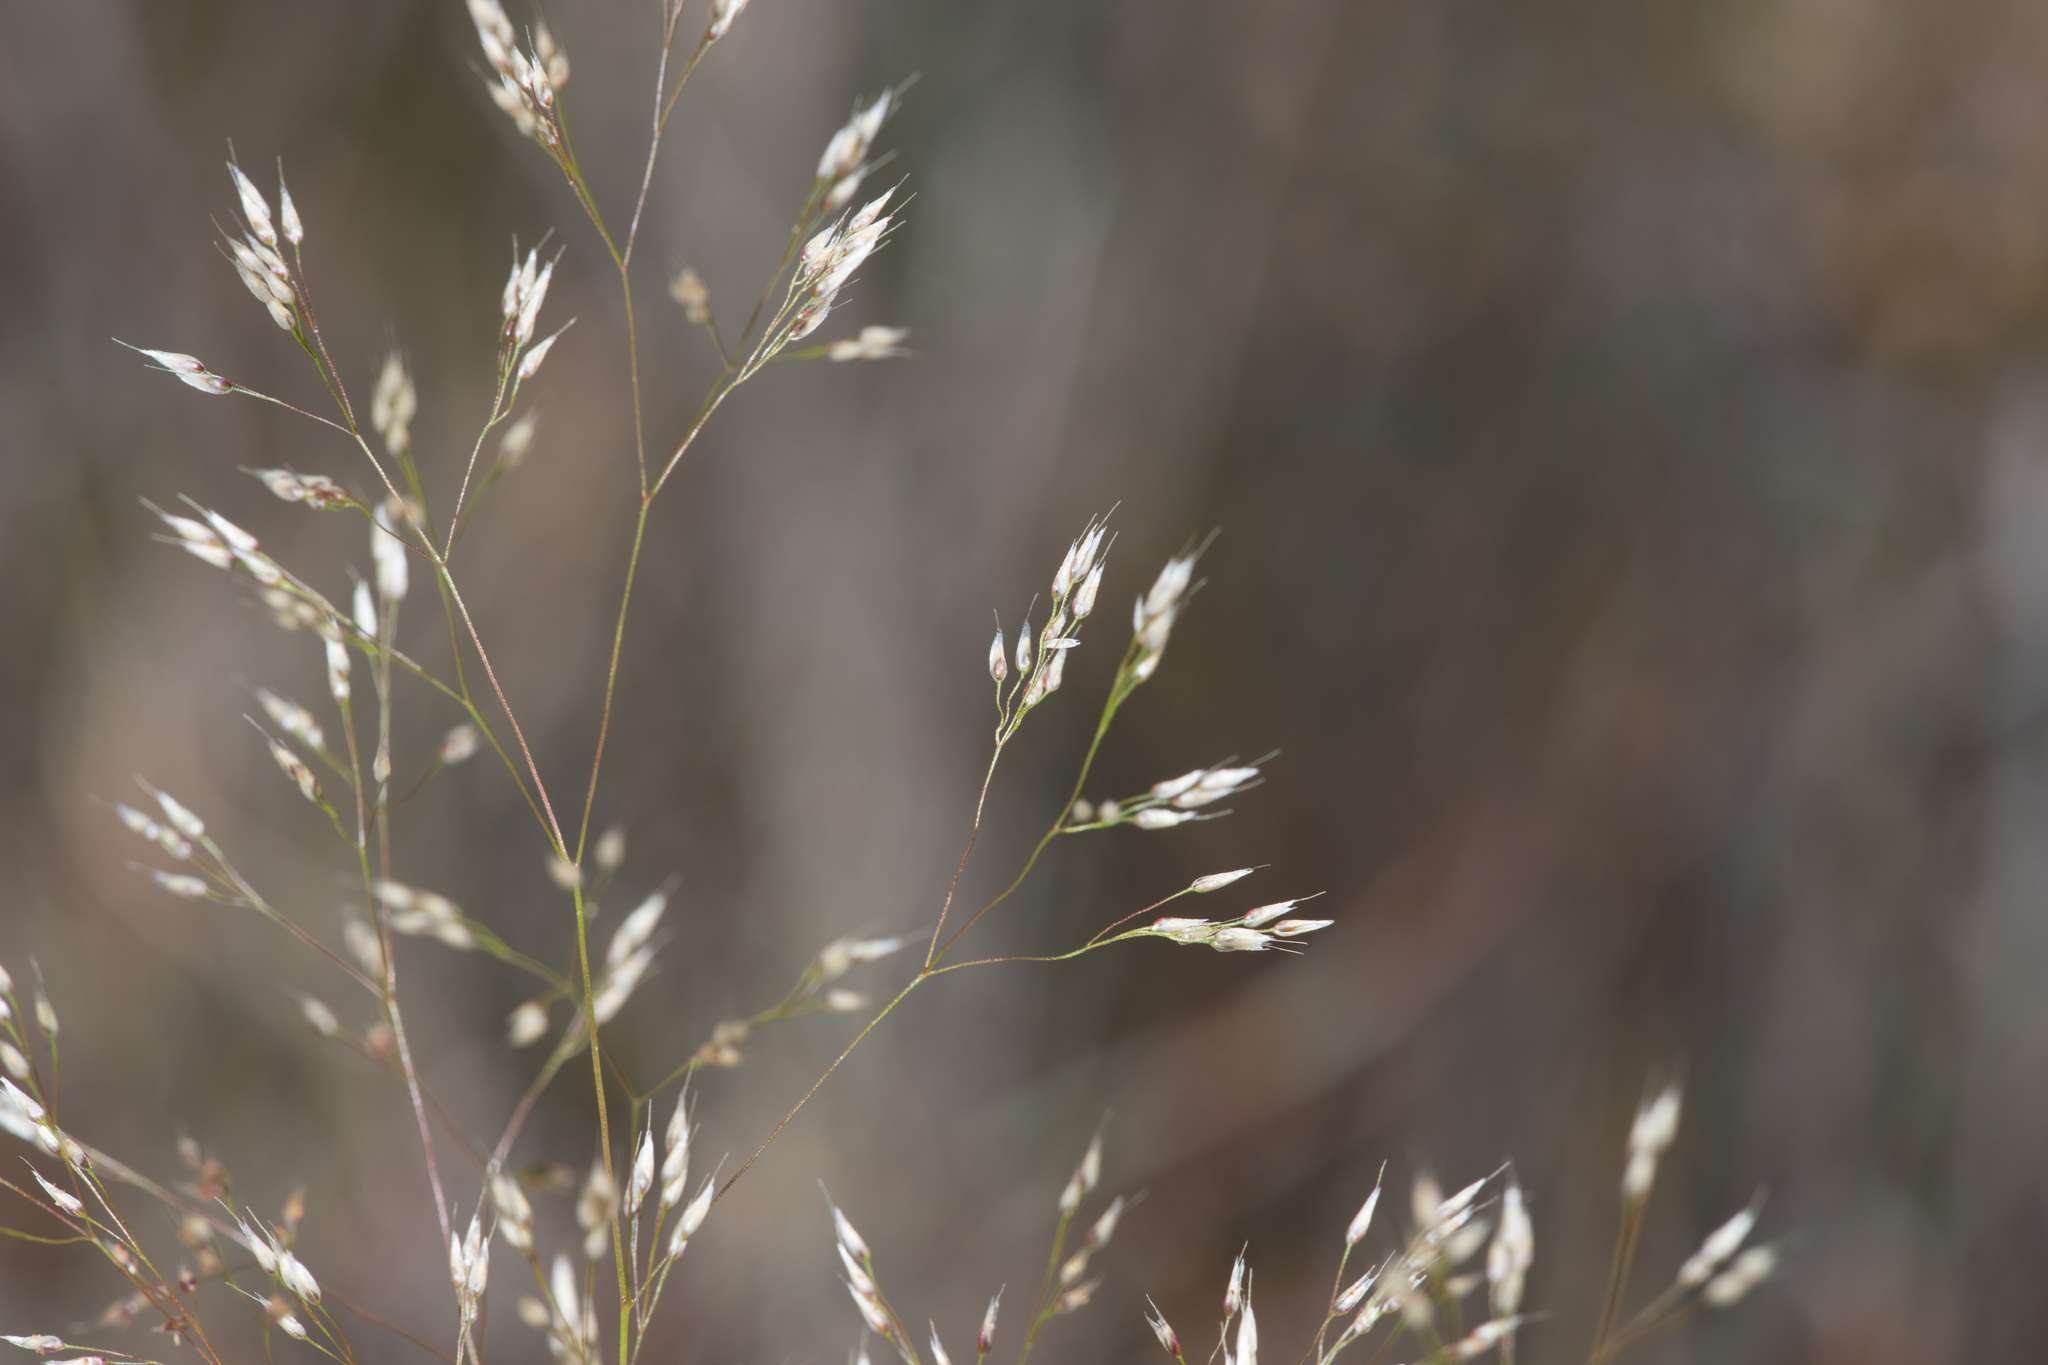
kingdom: Plantae
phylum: Tracheophyta
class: Liliopsida
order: Poales
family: Poaceae
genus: Aira
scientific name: Aira cupaniana
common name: Silver hairgrass
